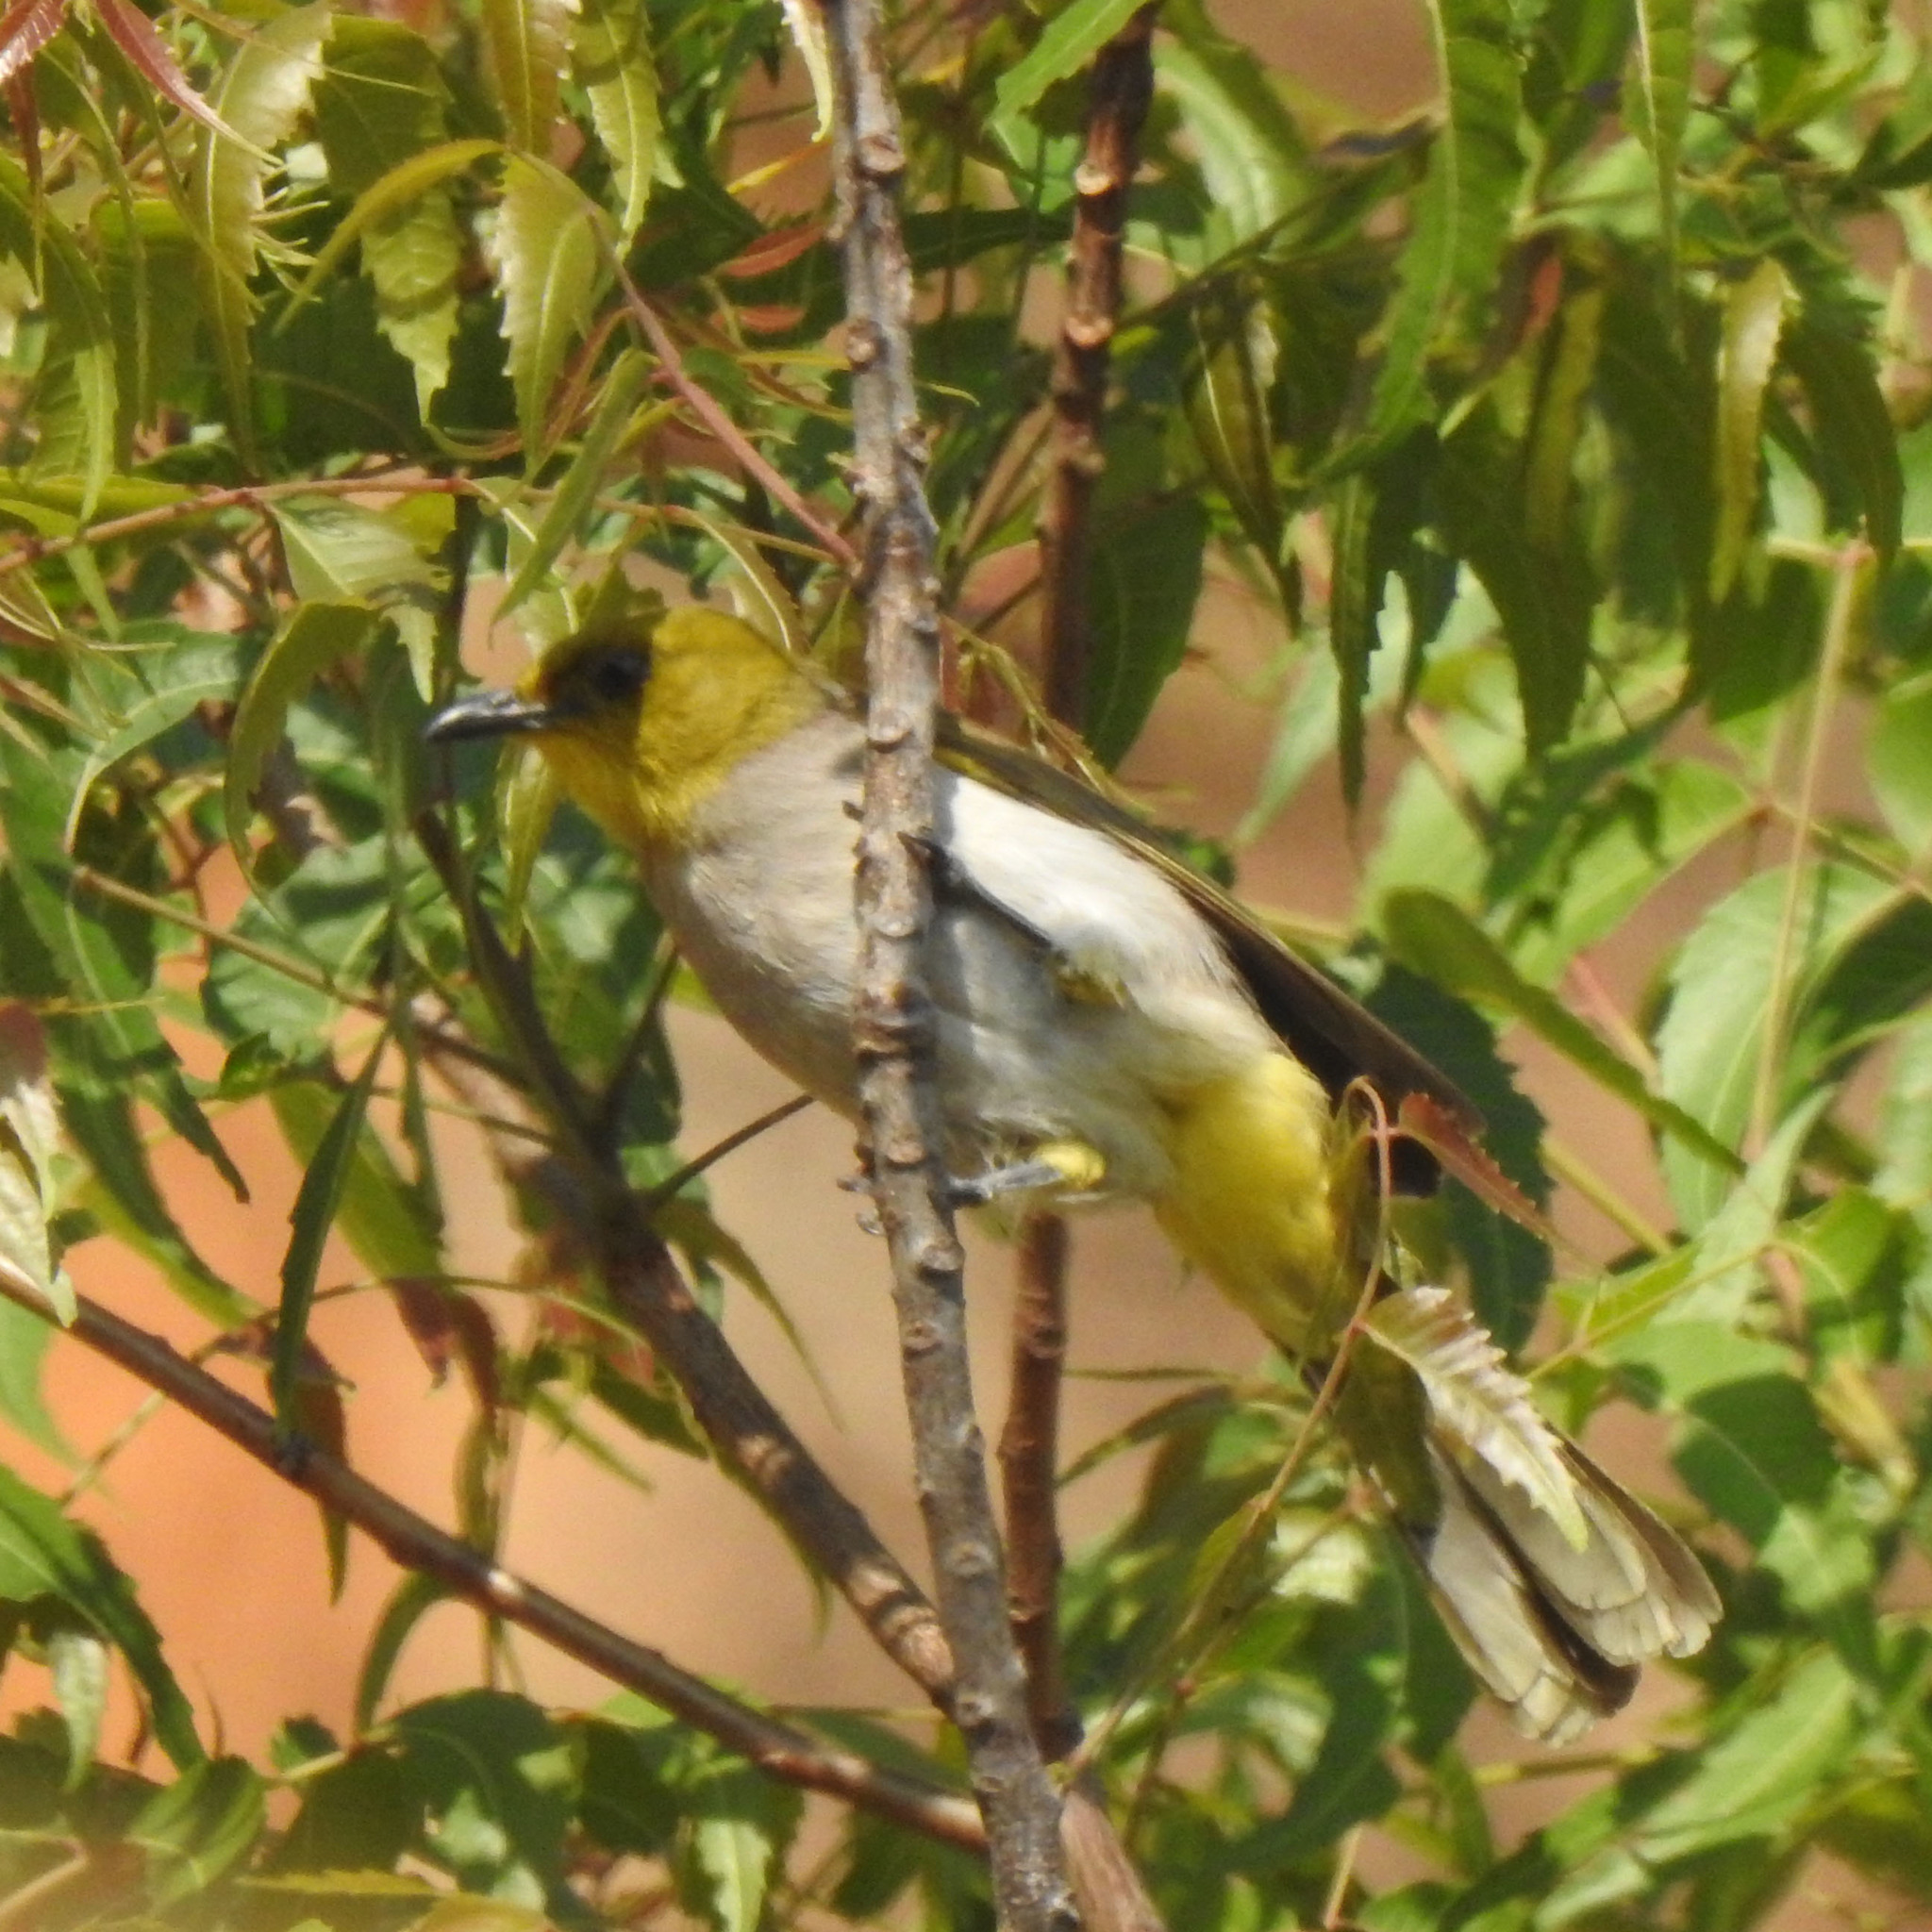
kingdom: Animalia
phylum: Chordata
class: Aves
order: Passeriformes
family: Pycnonotidae
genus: Pycnonotus
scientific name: Pycnonotus xantholaemus
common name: Yellow-throated bulbul
